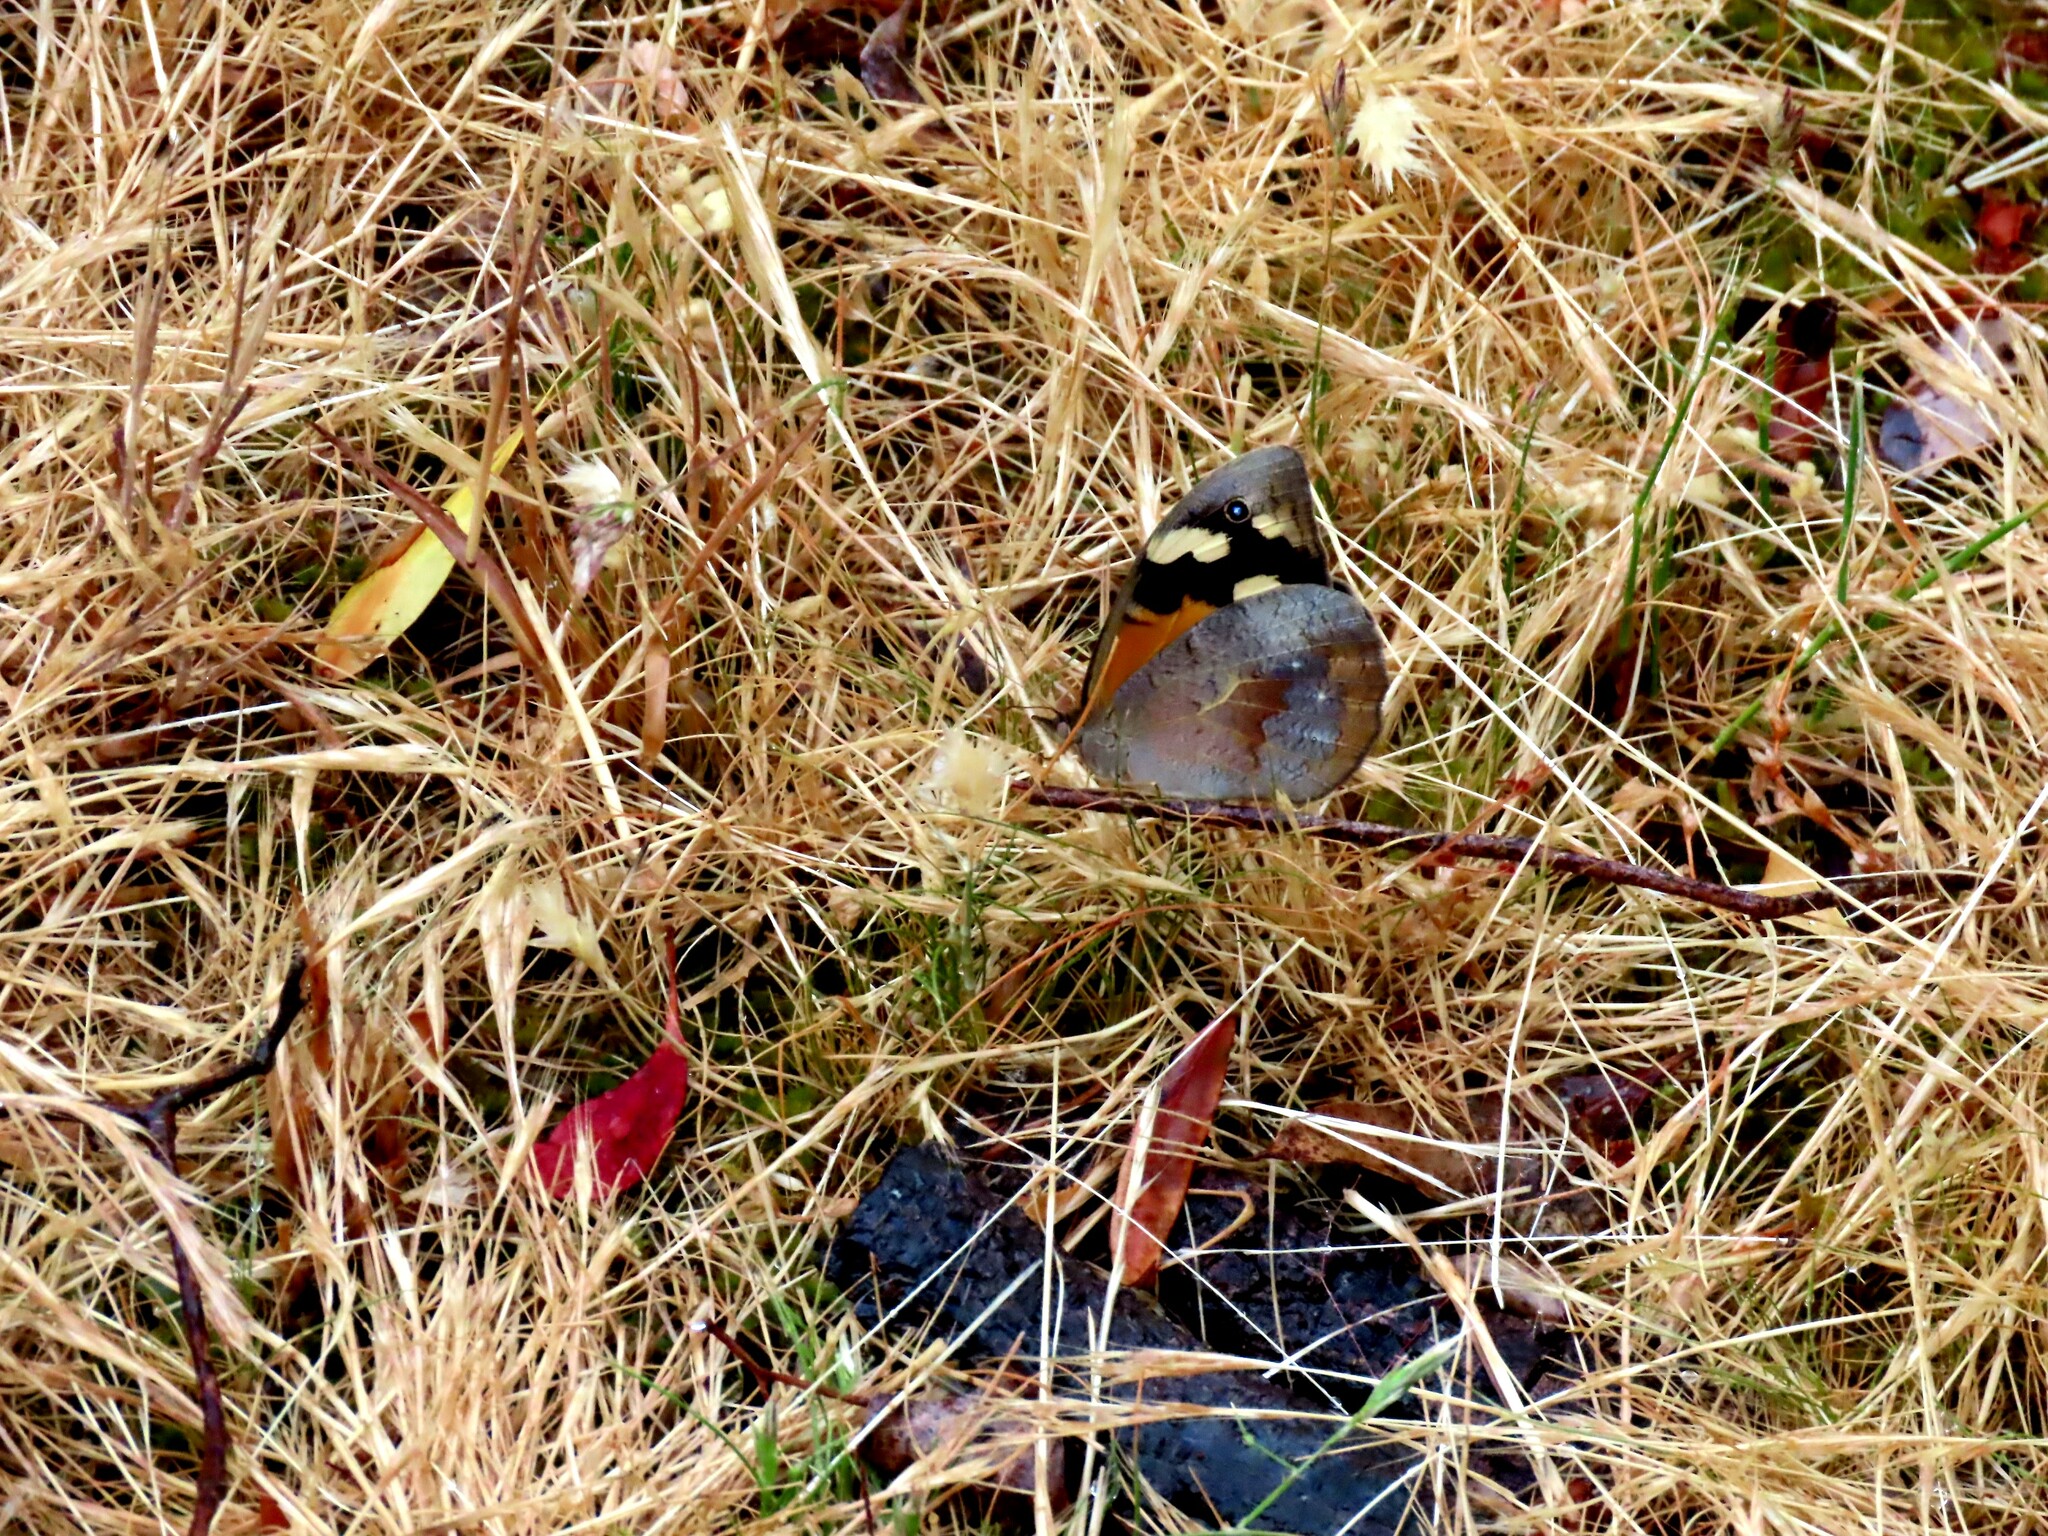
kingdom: Animalia
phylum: Arthropoda
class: Insecta
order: Lepidoptera
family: Nymphalidae
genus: Heteronympha
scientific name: Heteronympha merope
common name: Common brown
